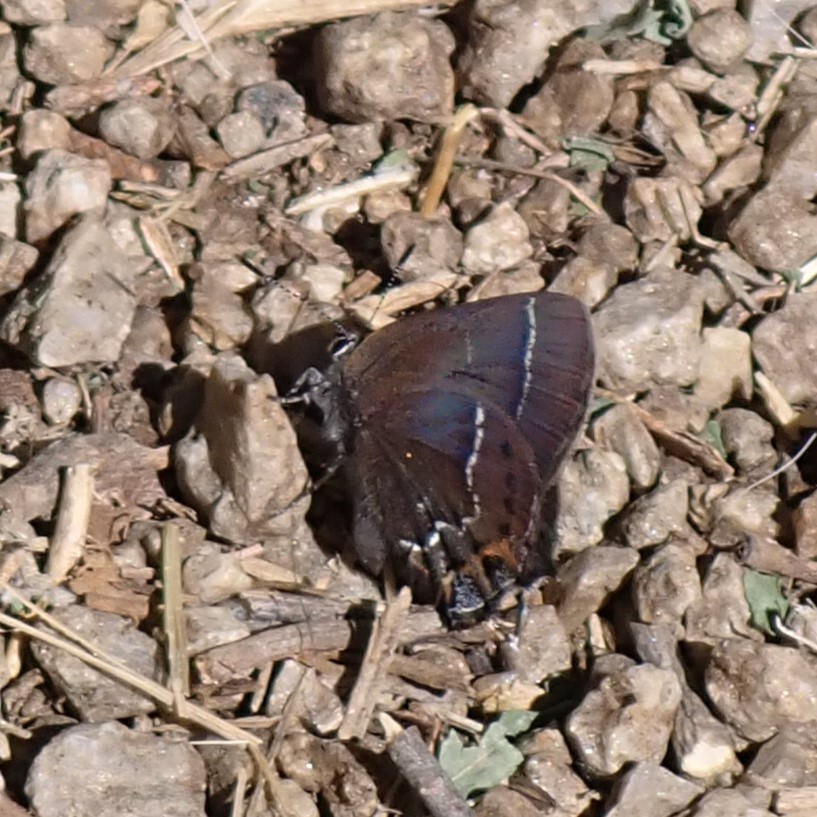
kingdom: Animalia
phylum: Arthropoda
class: Insecta
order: Lepidoptera
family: Lycaenidae
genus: Mitoura
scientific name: Mitoura spinetorum
